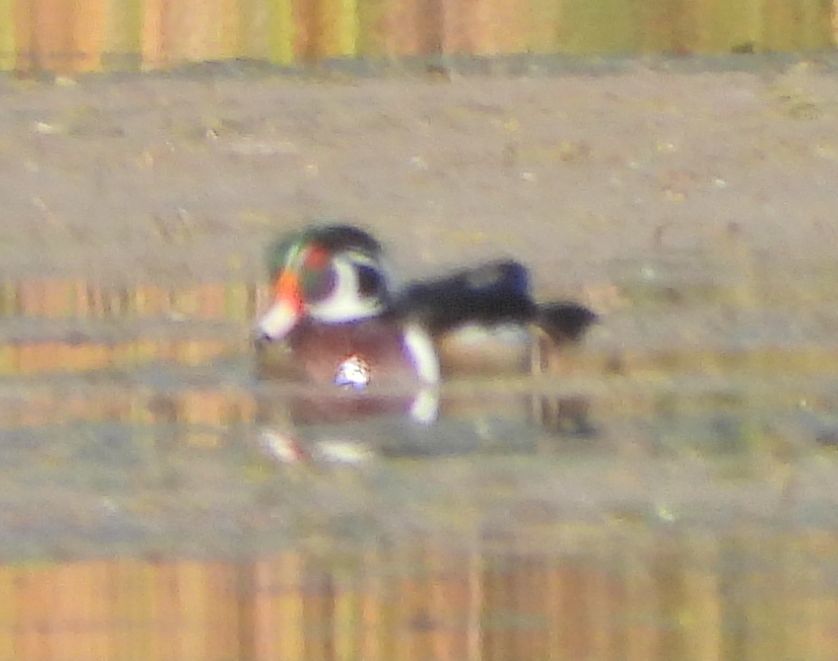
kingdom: Animalia
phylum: Chordata
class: Aves
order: Anseriformes
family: Anatidae
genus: Aix
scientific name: Aix sponsa
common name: Wood duck
